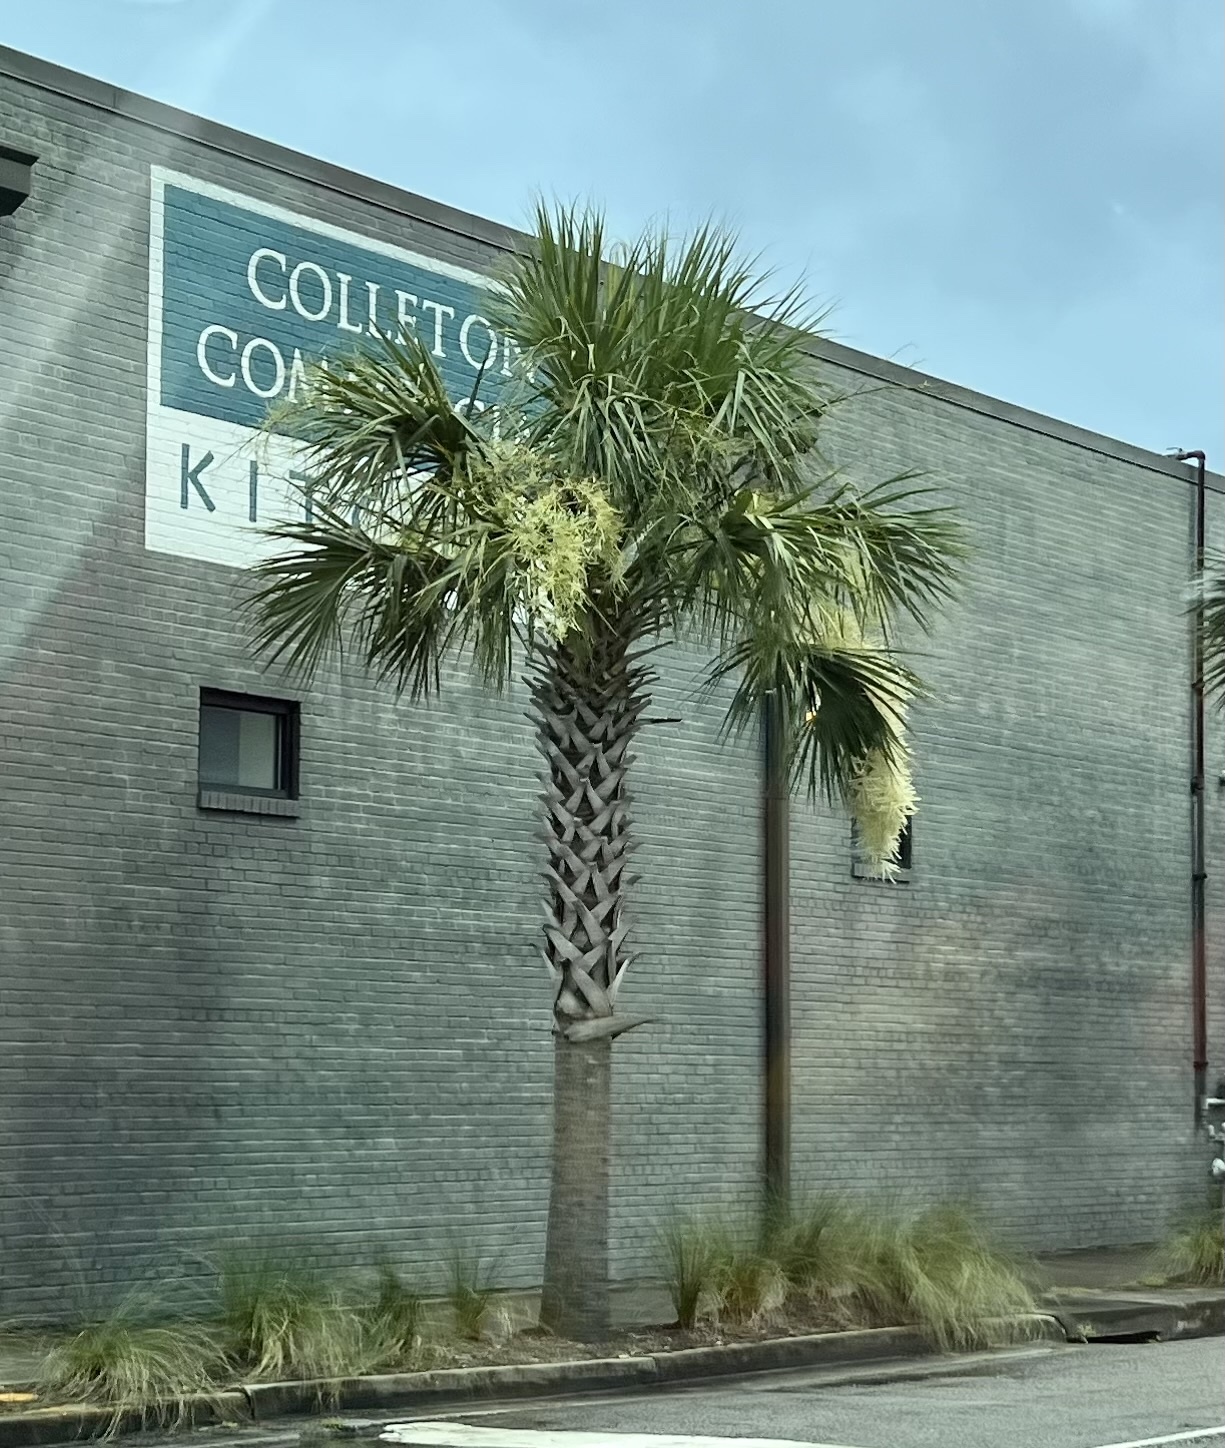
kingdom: Plantae
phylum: Tracheophyta
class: Liliopsida
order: Arecales
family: Arecaceae
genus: Sabal
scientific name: Sabal palmetto
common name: Blue palmetto
